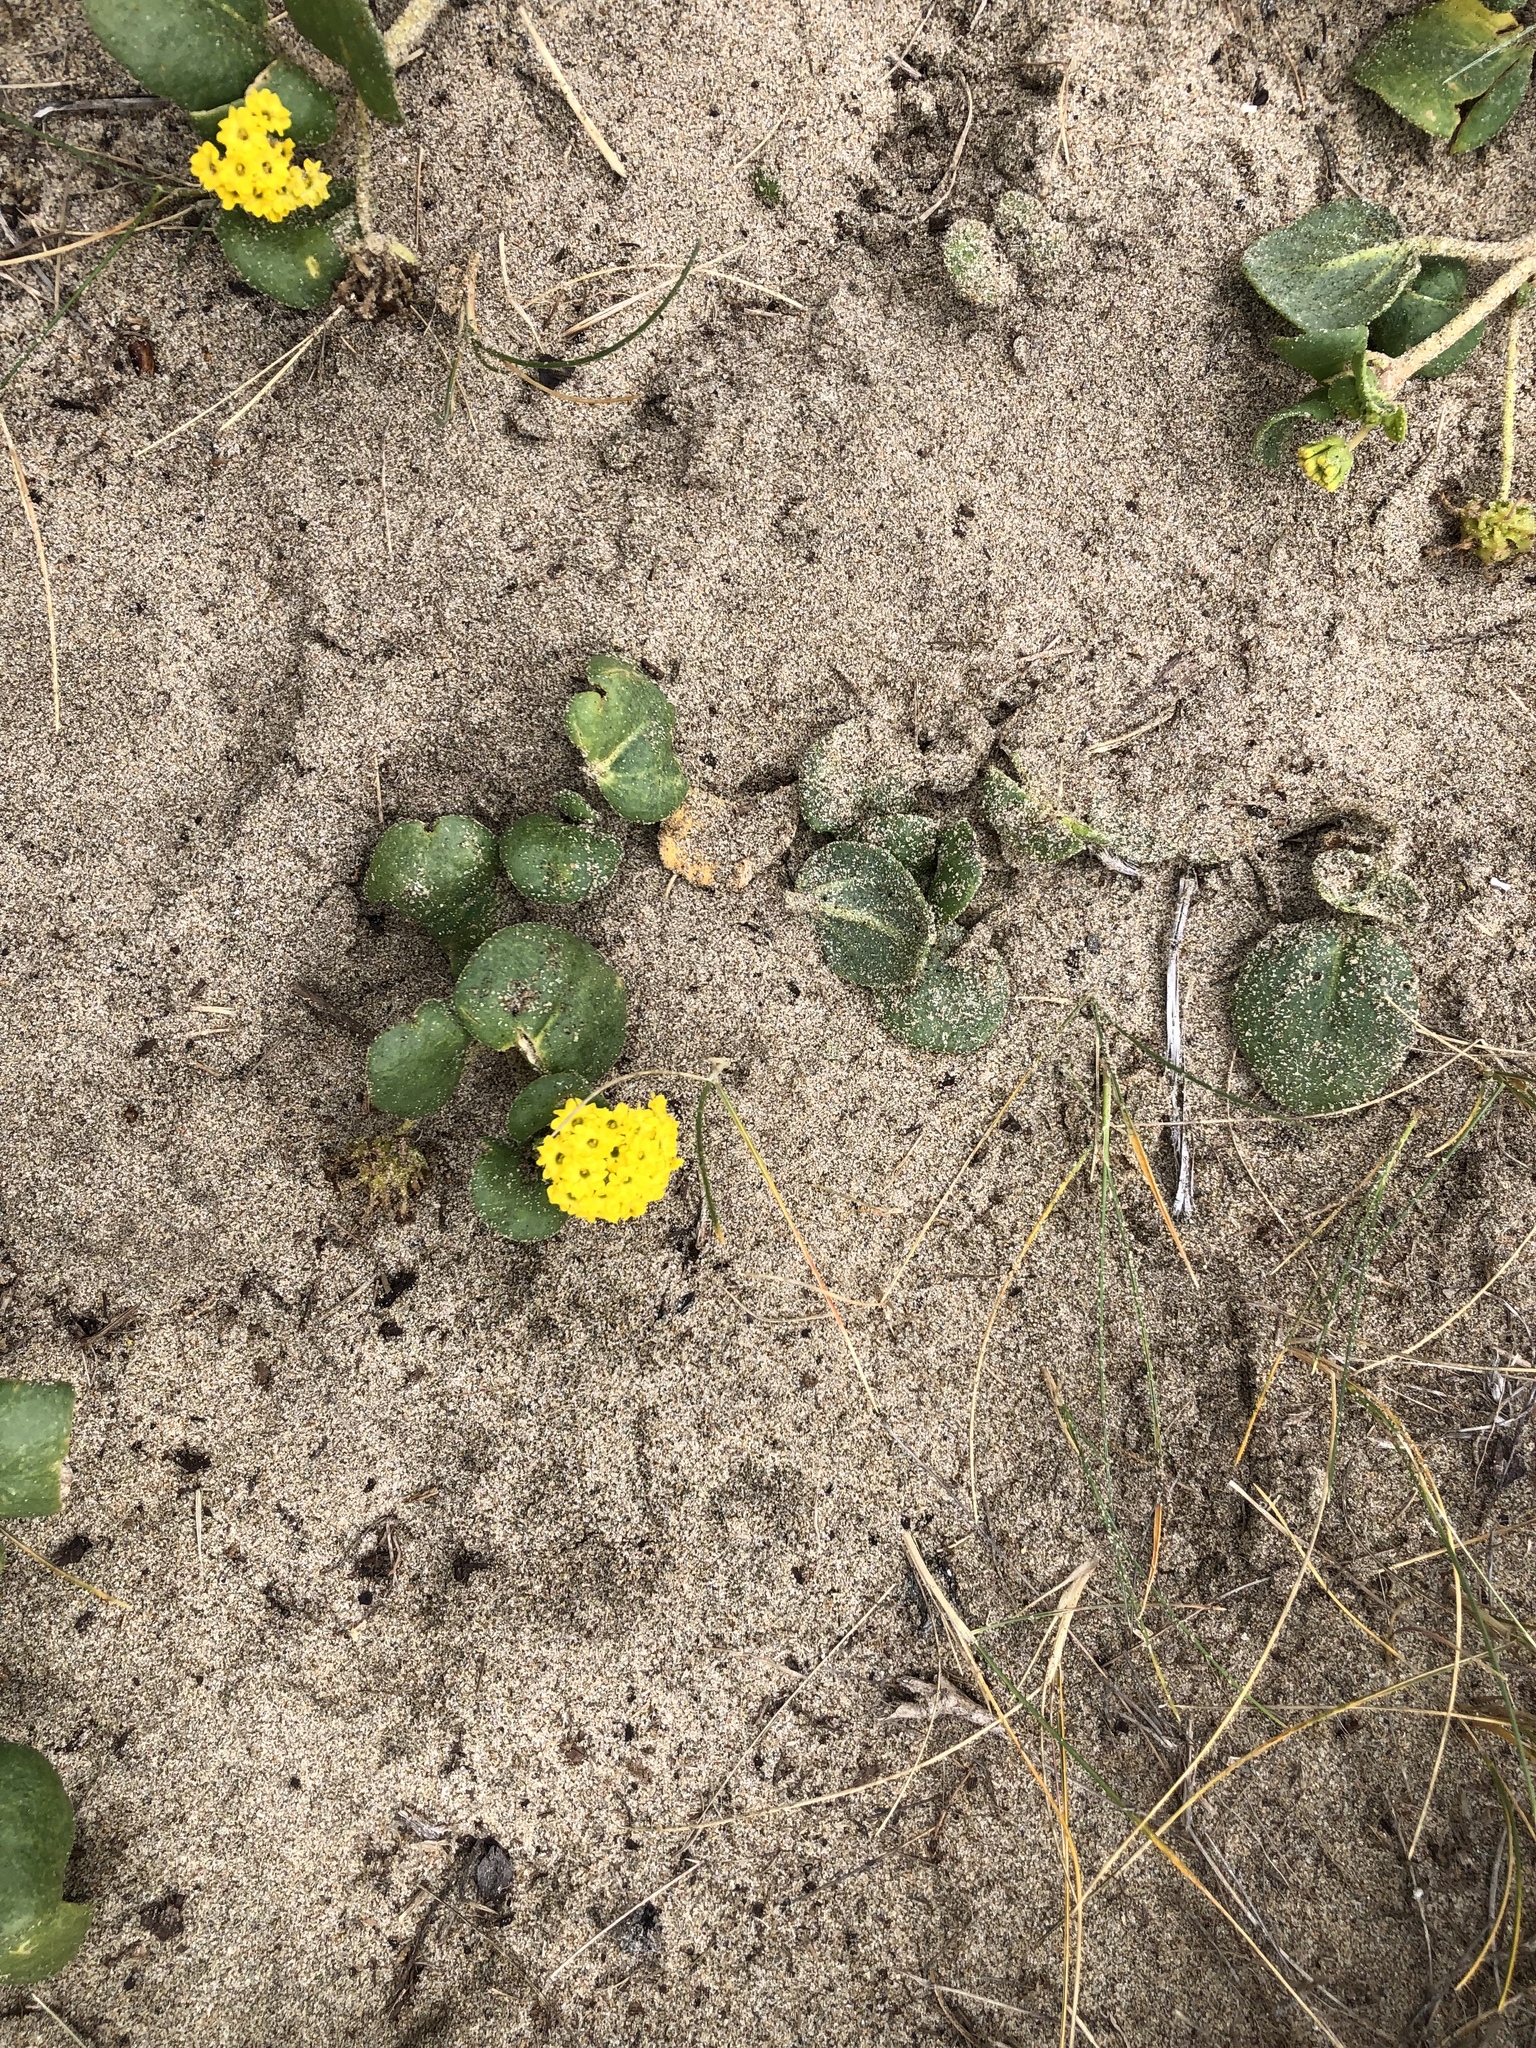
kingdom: Plantae
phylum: Tracheophyta
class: Magnoliopsida
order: Caryophyllales
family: Nyctaginaceae
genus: Abronia
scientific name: Abronia latifolia
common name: Yellow sand-verbena
